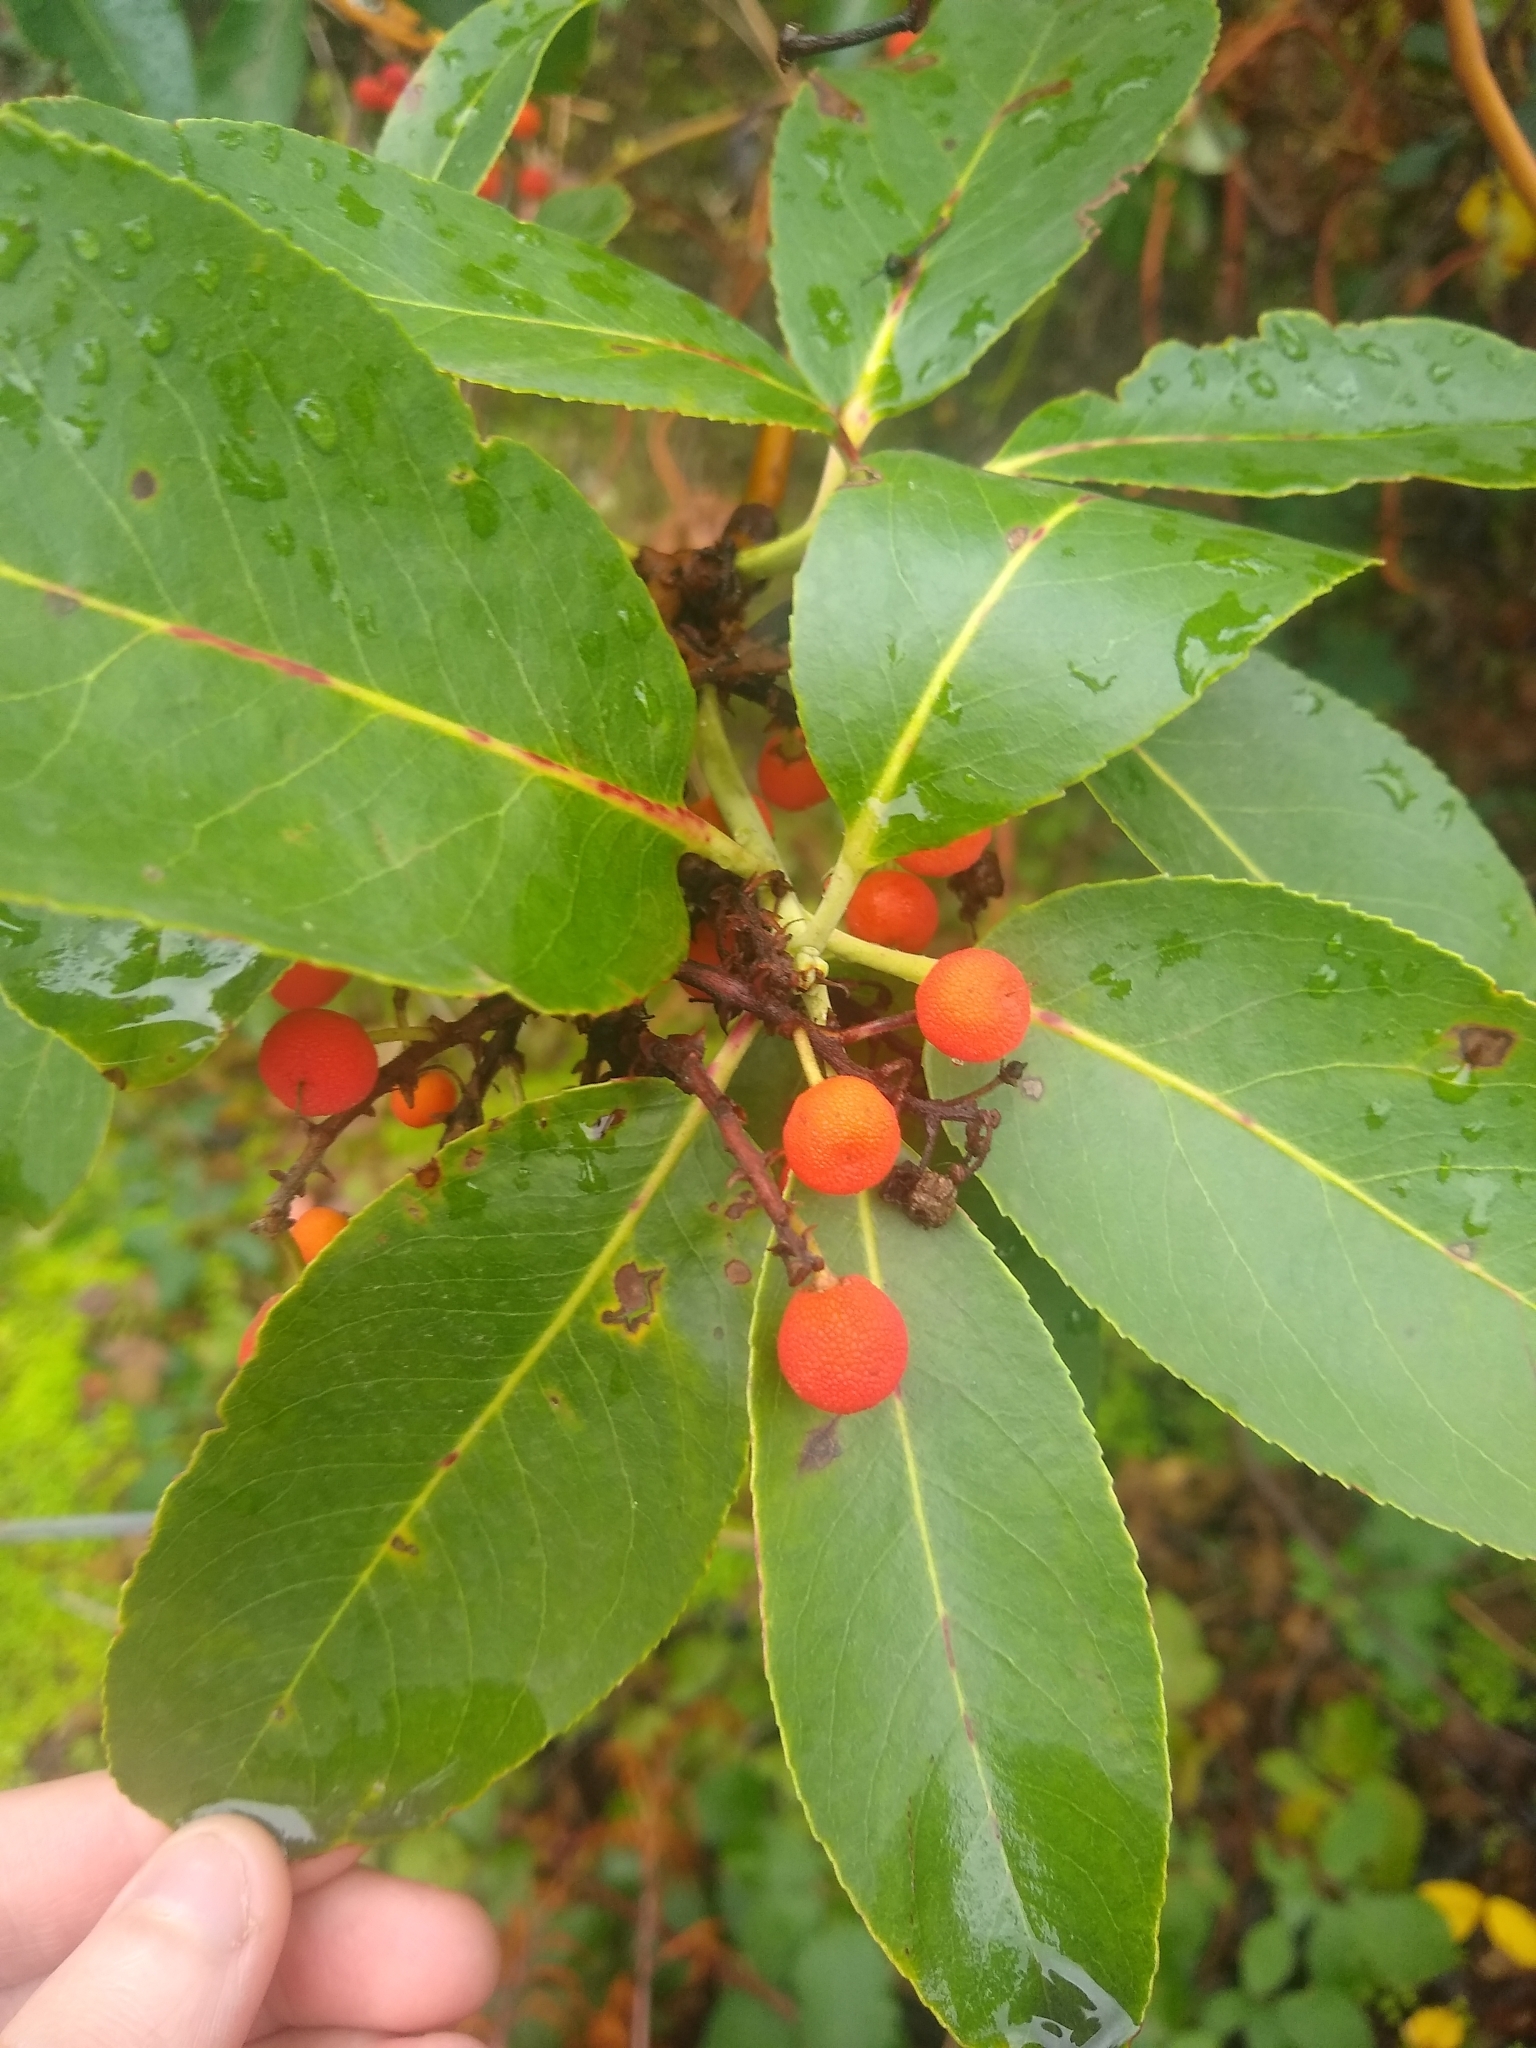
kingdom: Plantae
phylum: Tracheophyta
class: Magnoliopsida
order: Ericales
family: Ericaceae
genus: Arbutus
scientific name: Arbutus menziesii
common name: Pacific madrone
